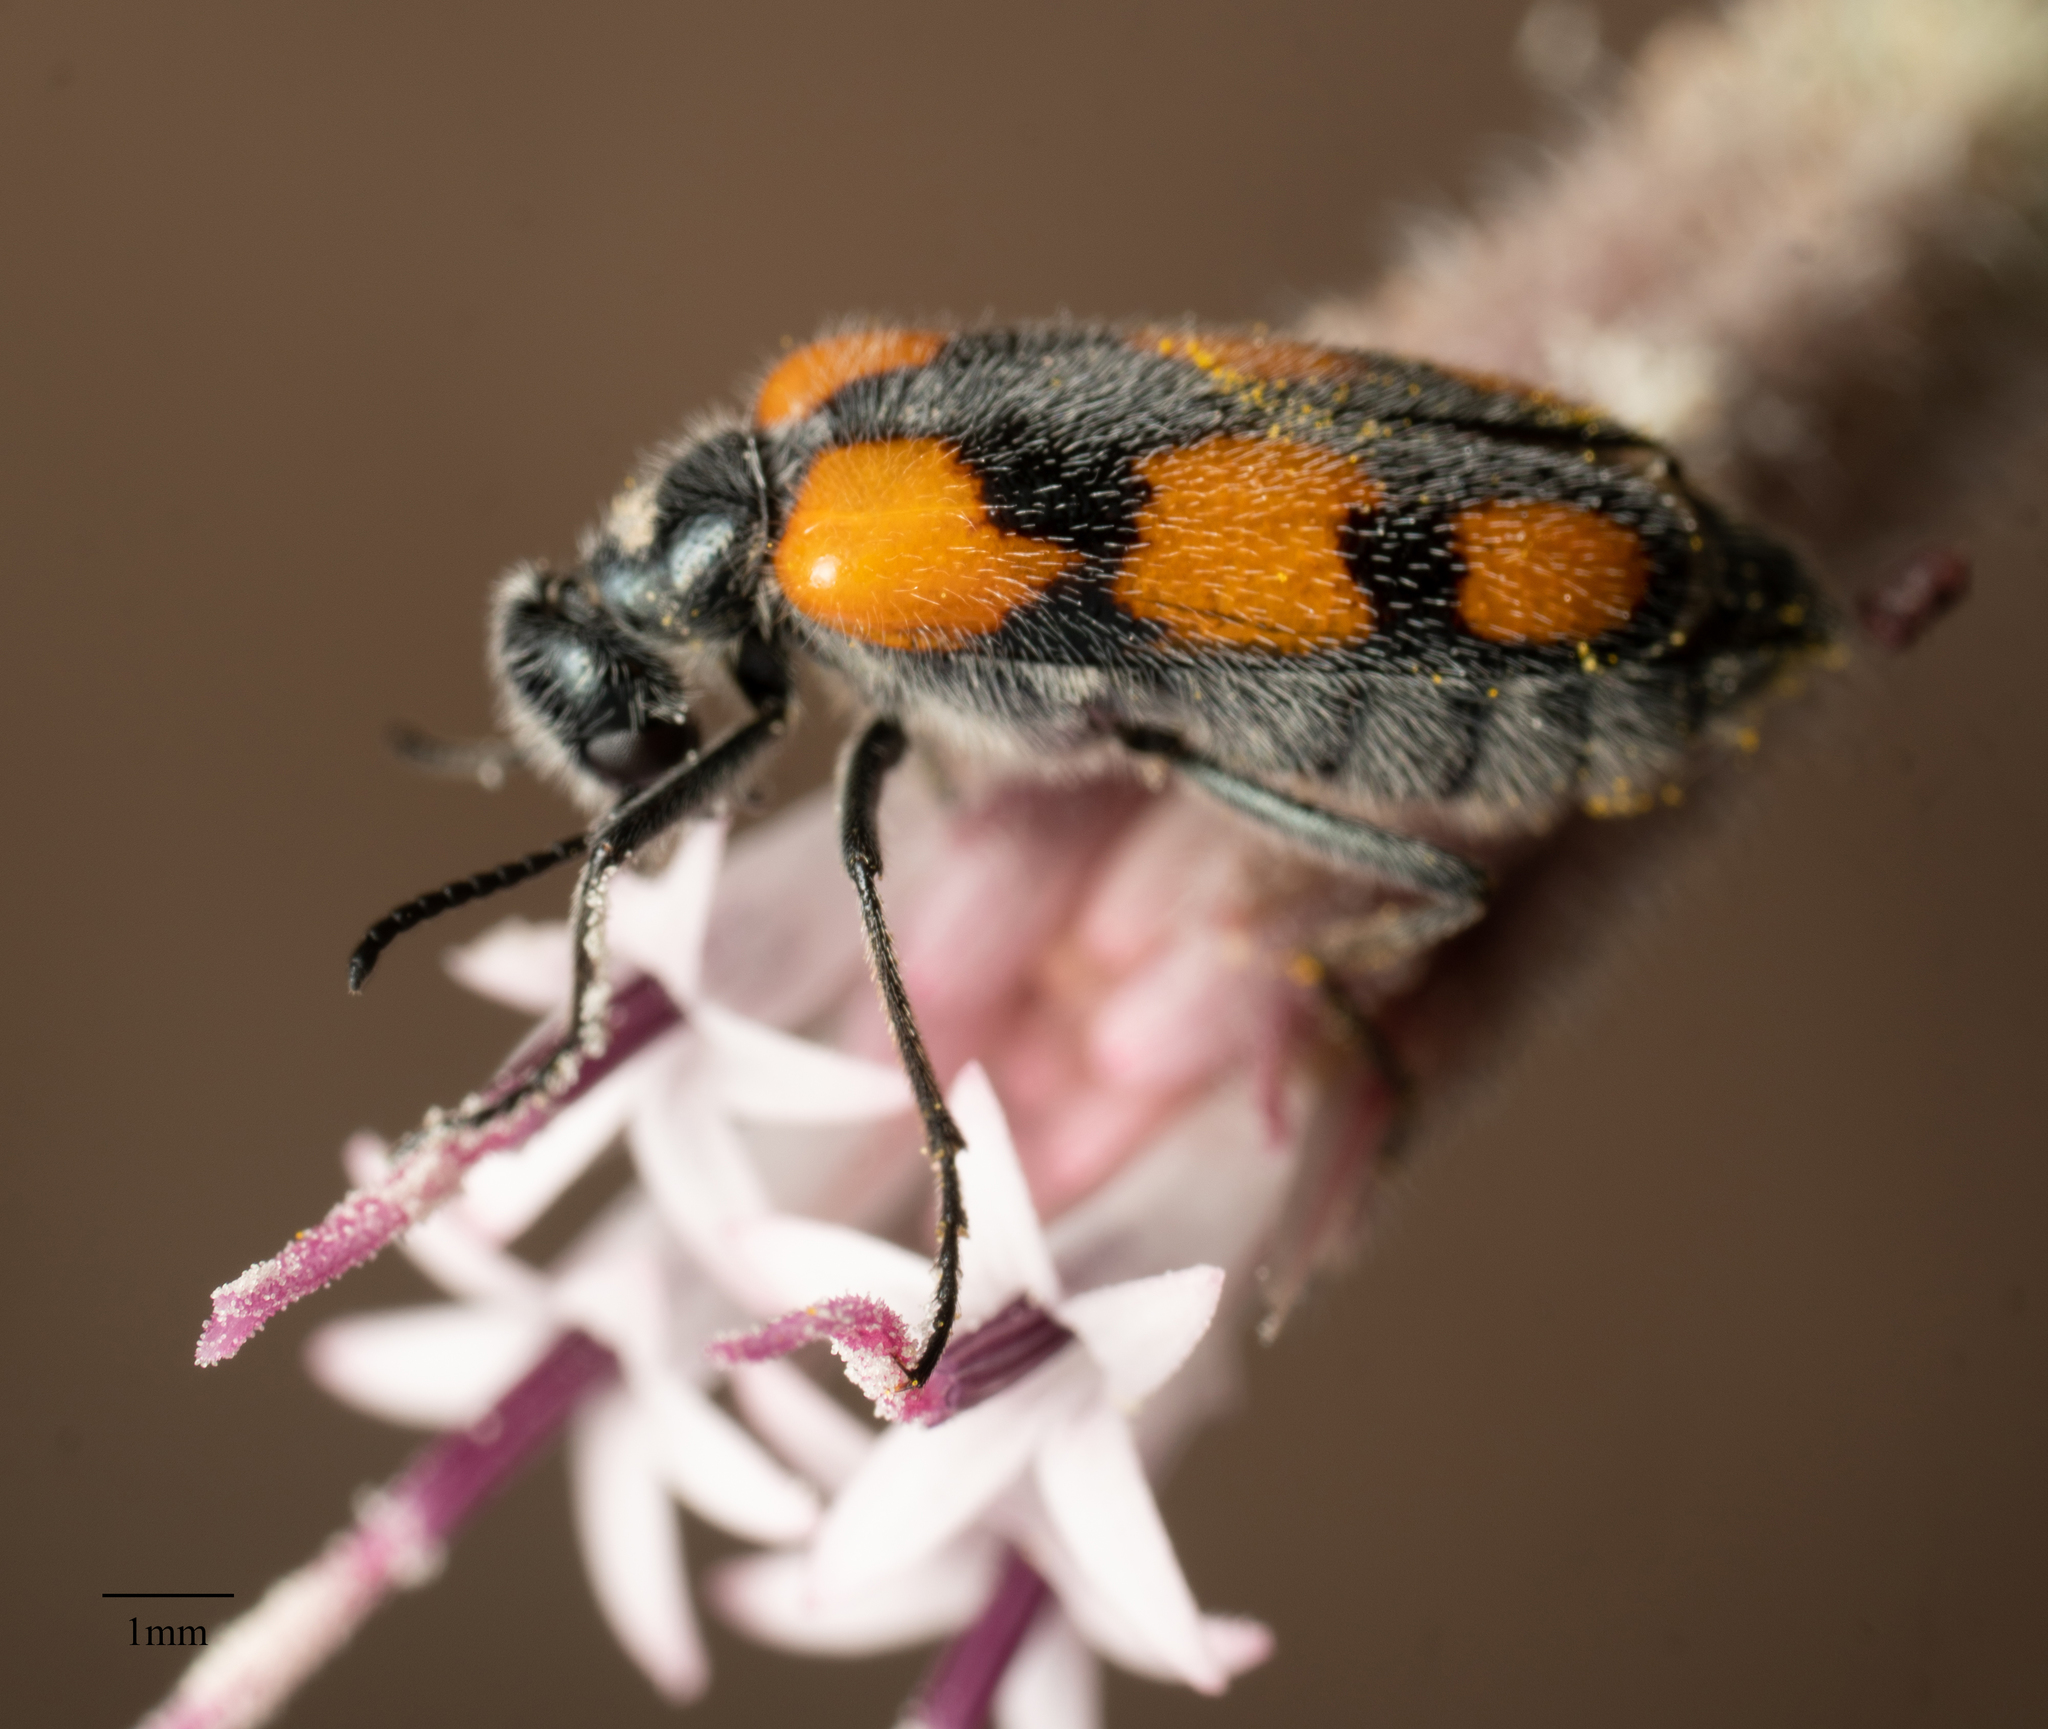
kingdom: Animalia
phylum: Arthropoda
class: Insecta
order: Coleoptera
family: Meloidae
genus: Eupompha
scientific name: Eupompha elegans
